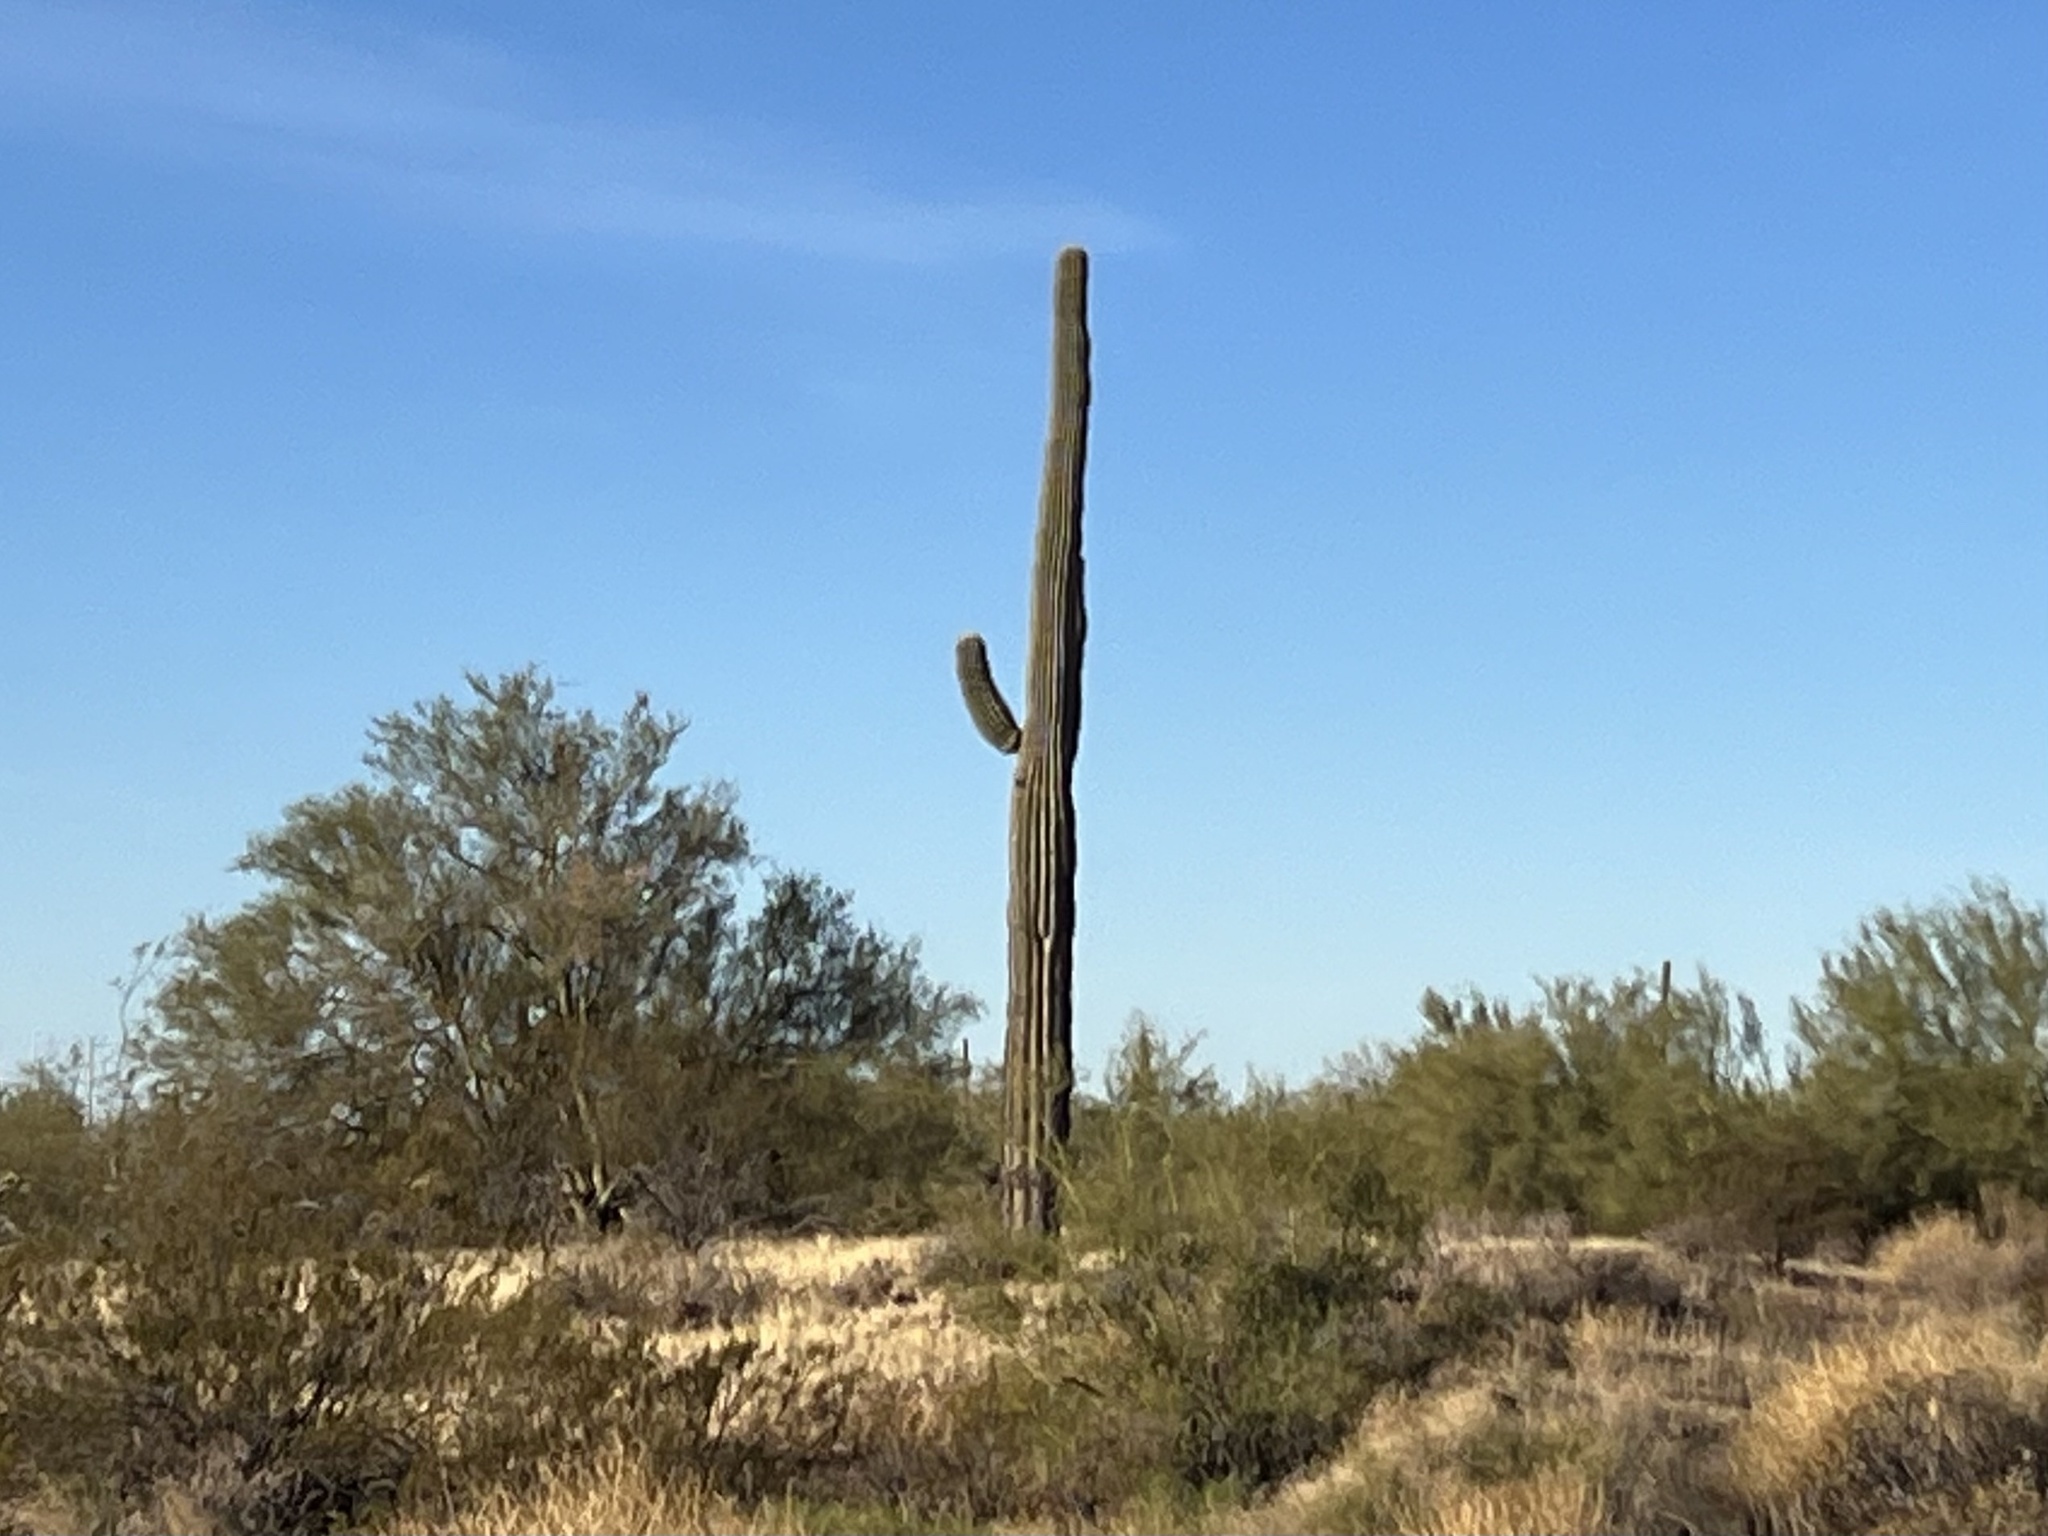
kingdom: Plantae
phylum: Tracheophyta
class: Magnoliopsida
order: Caryophyllales
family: Cactaceae
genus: Carnegiea
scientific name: Carnegiea gigantea
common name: Saguaro
